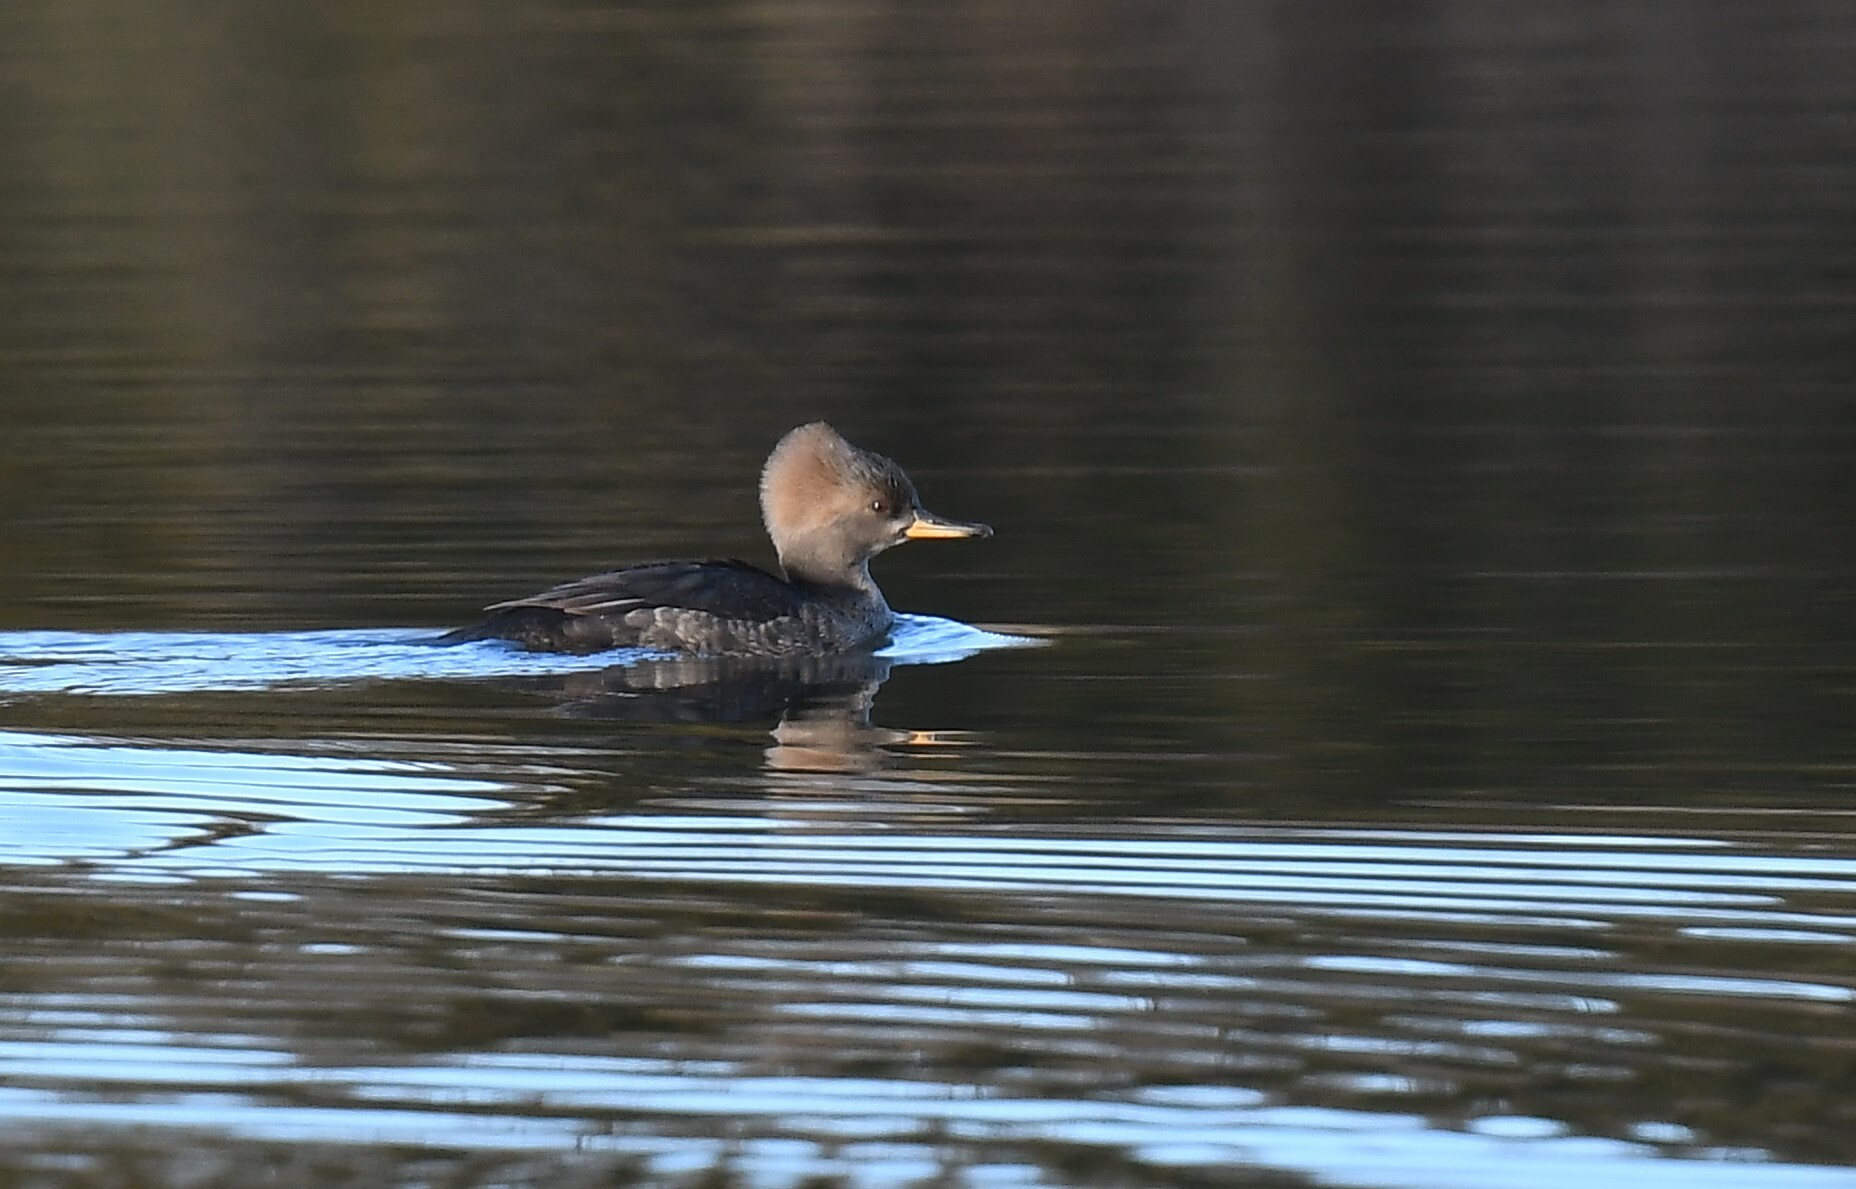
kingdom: Animalia
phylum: Chordata
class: Aves
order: Anseriformes
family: Anatidae
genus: Lophodytes
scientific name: Lophodytes cucullatus
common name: Hooded merganser
